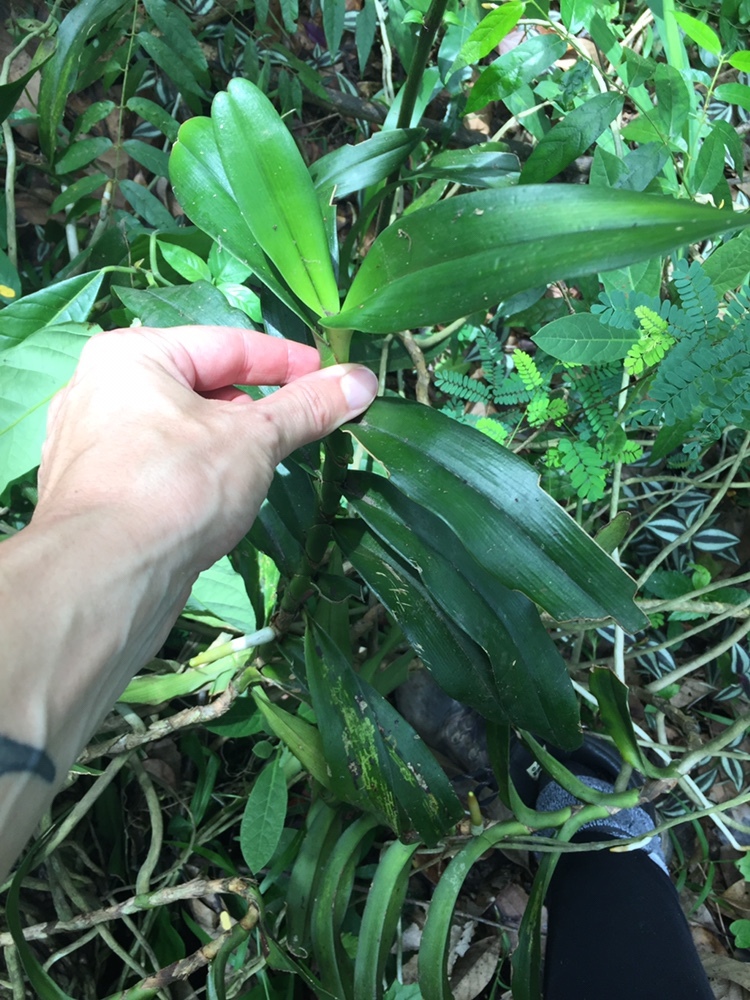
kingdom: Plantae
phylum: Tracheophyta
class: Liliopsida
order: Asparagales
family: Orchidaceae
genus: Cyrtorchis
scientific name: Cyrtorchis arcuata
